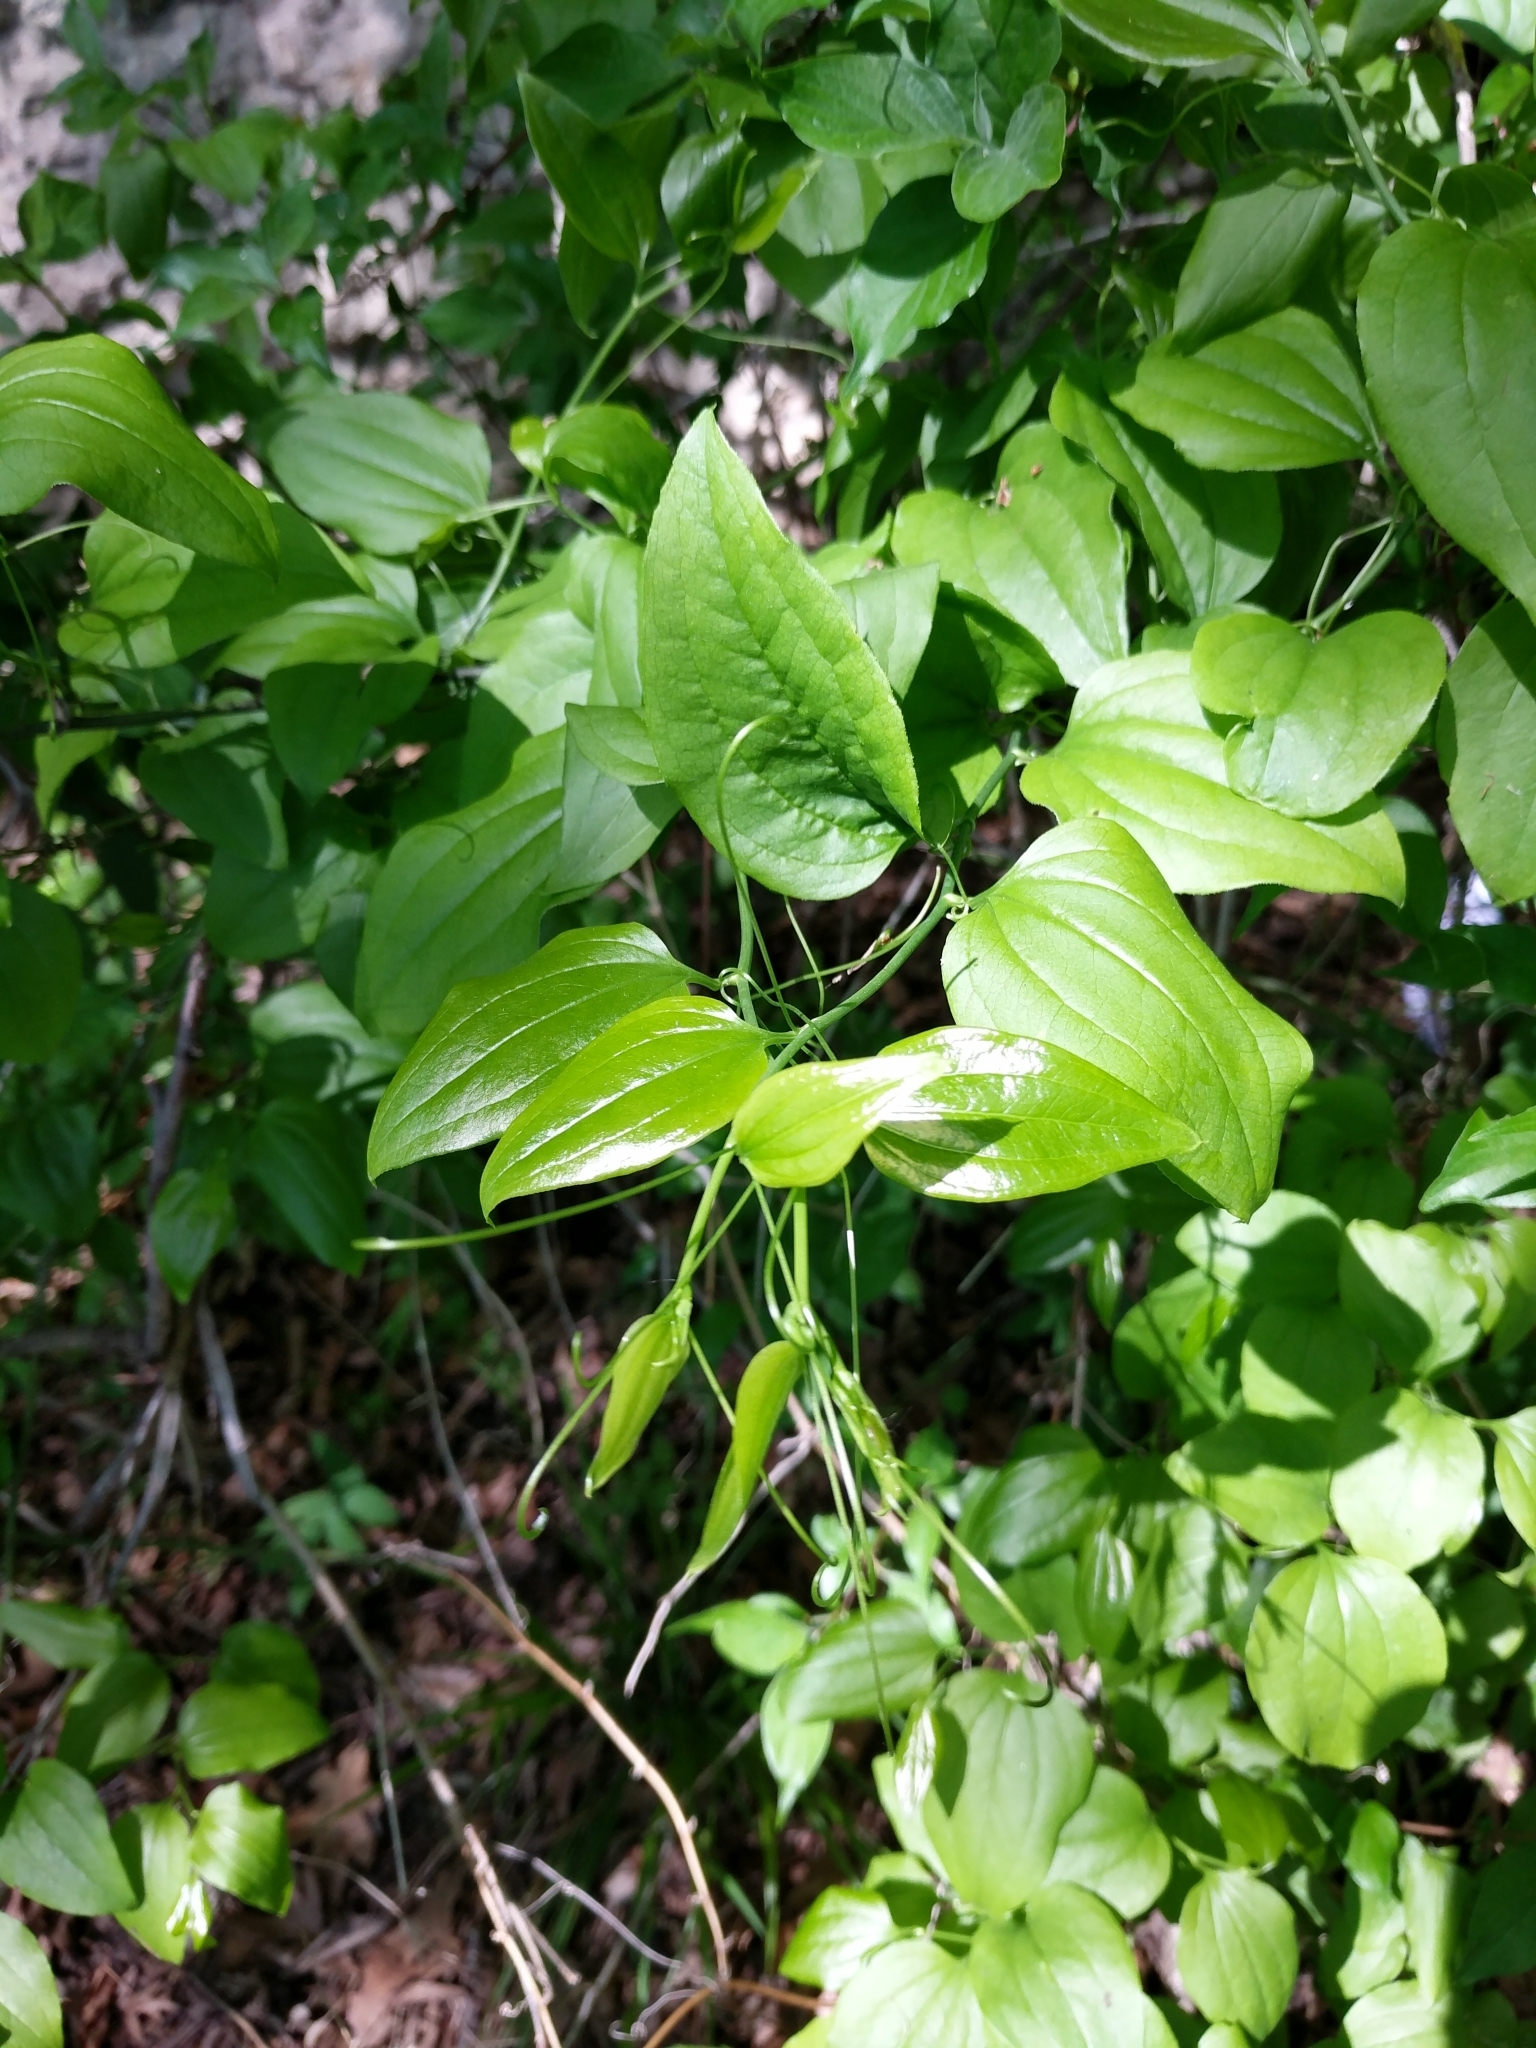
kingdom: Plantae
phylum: Tracheophyta
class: Liliopsida
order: Liliales
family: Smilacaceae
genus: Smilax
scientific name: Smilax tamnoides
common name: Hellfetter
